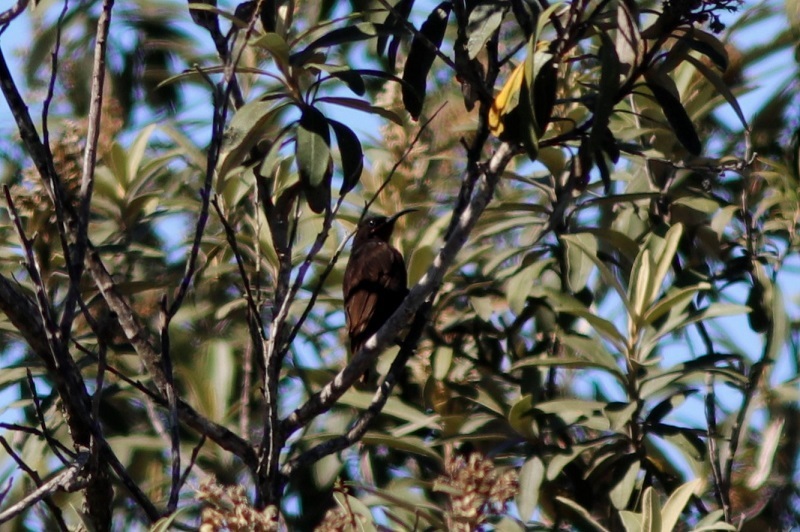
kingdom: Animalia
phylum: Chordata
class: Aves
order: Passeriformes
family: Nectariniidae
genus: Chalcomitra
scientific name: Chalcomitra amethystina
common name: Amethyst sunbird
